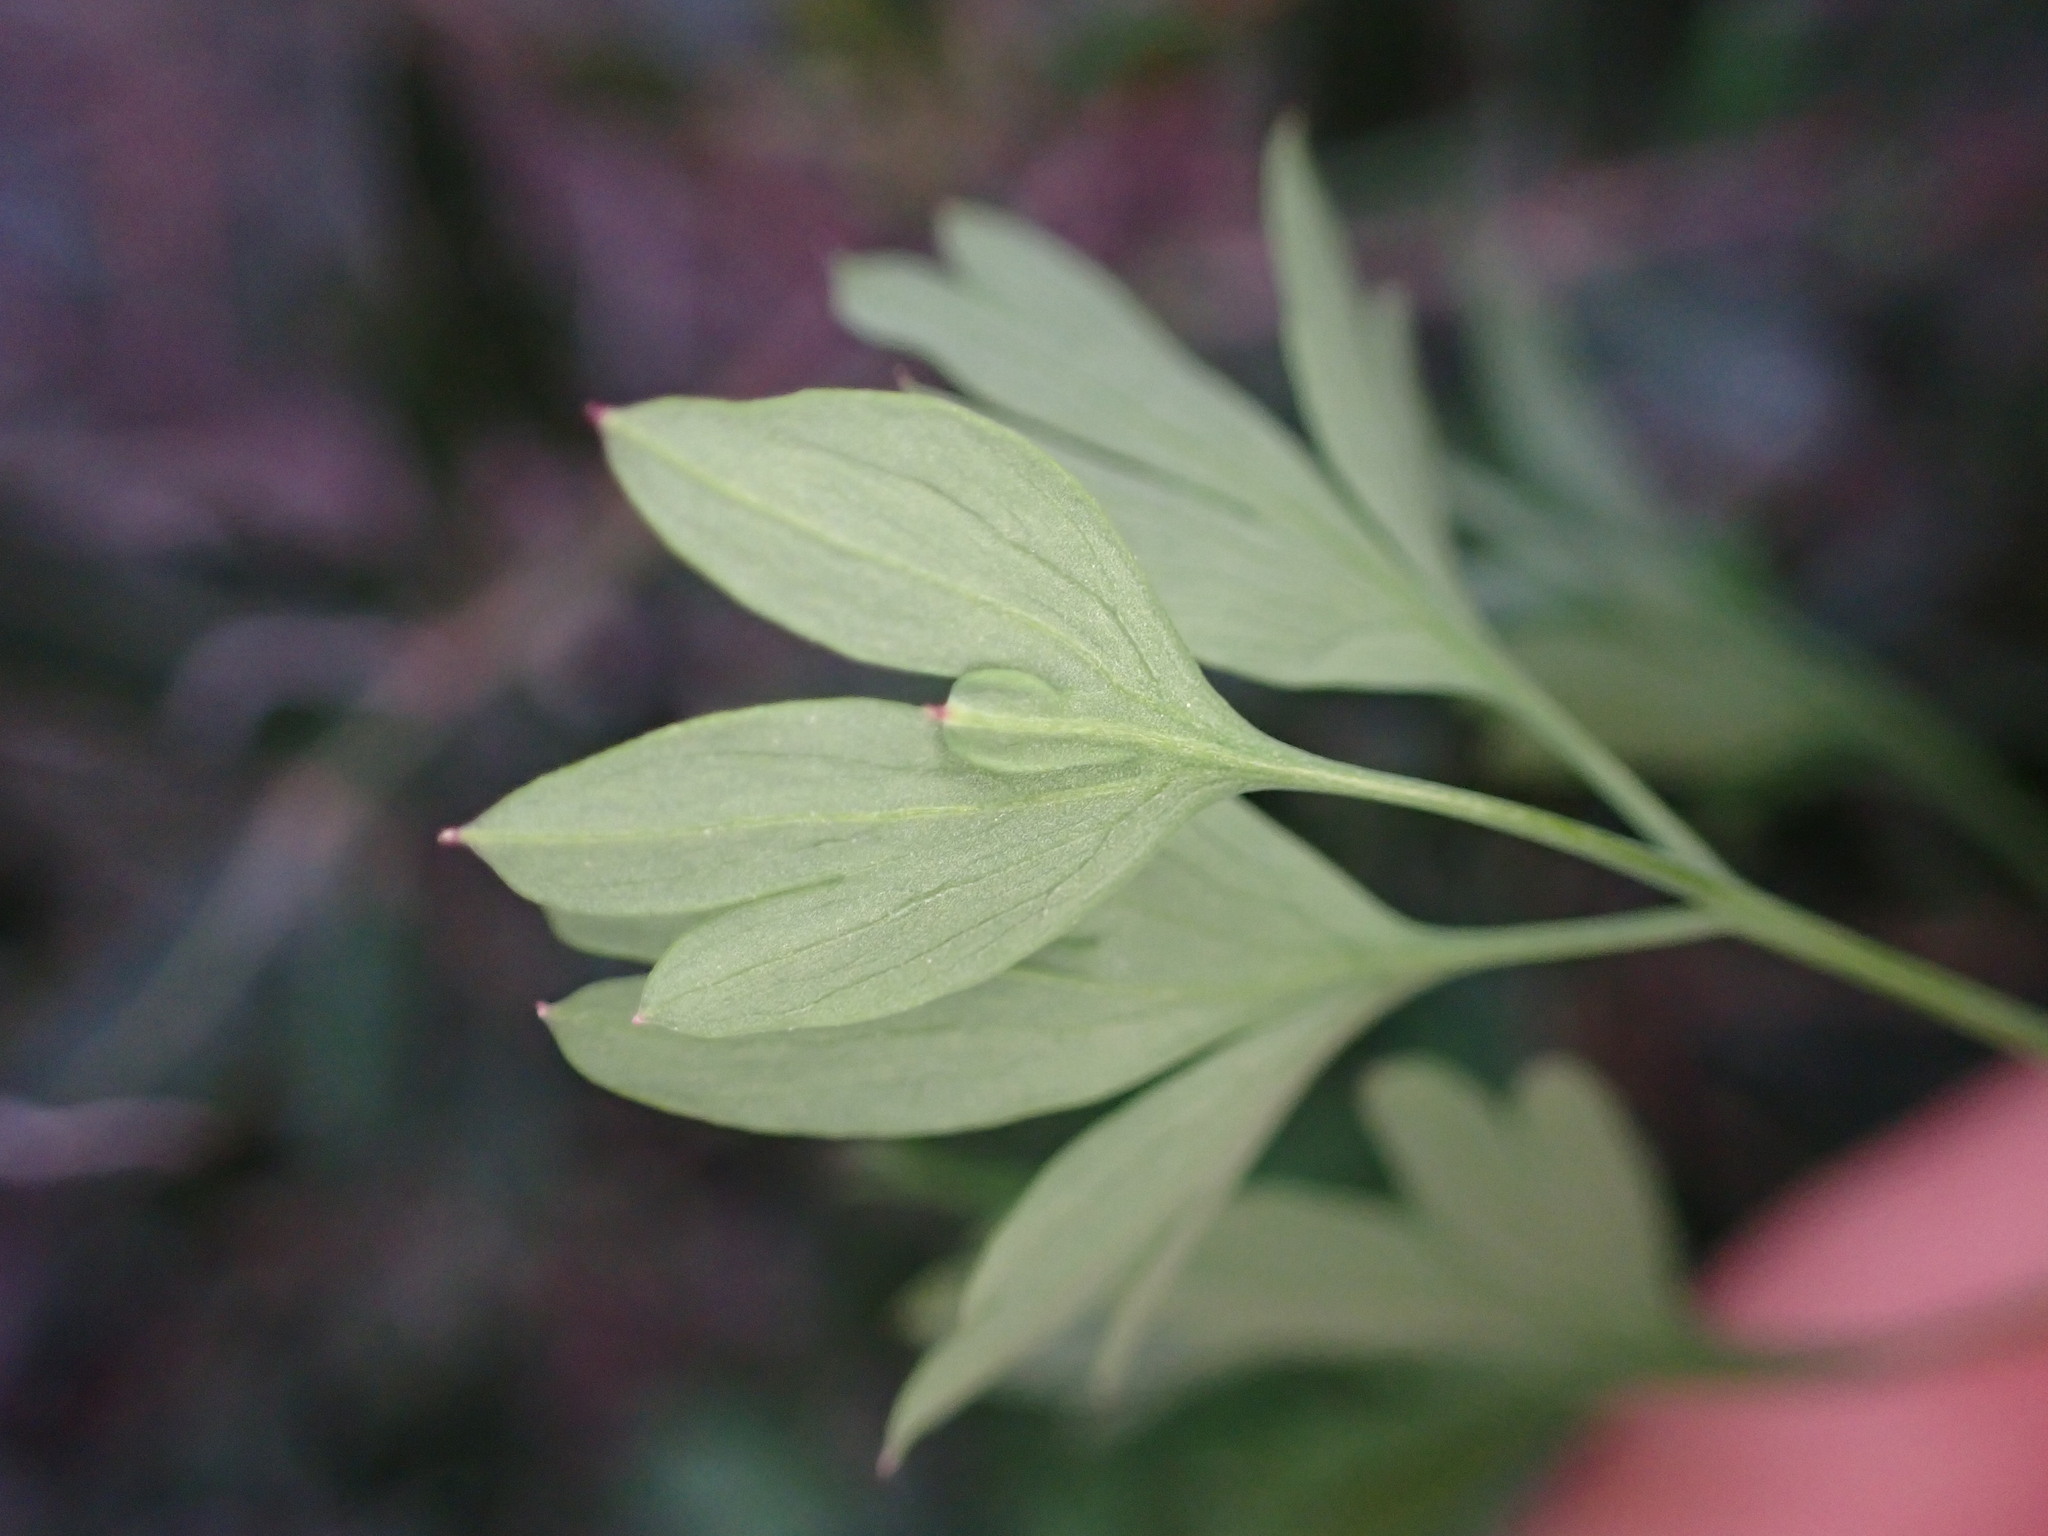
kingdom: Plantae
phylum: Tracheophyta
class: Magnoliopsida
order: Ranunculales
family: Papaveraceae
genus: Fumaria
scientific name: Fumaria capreolata
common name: White ramping-fumitory
